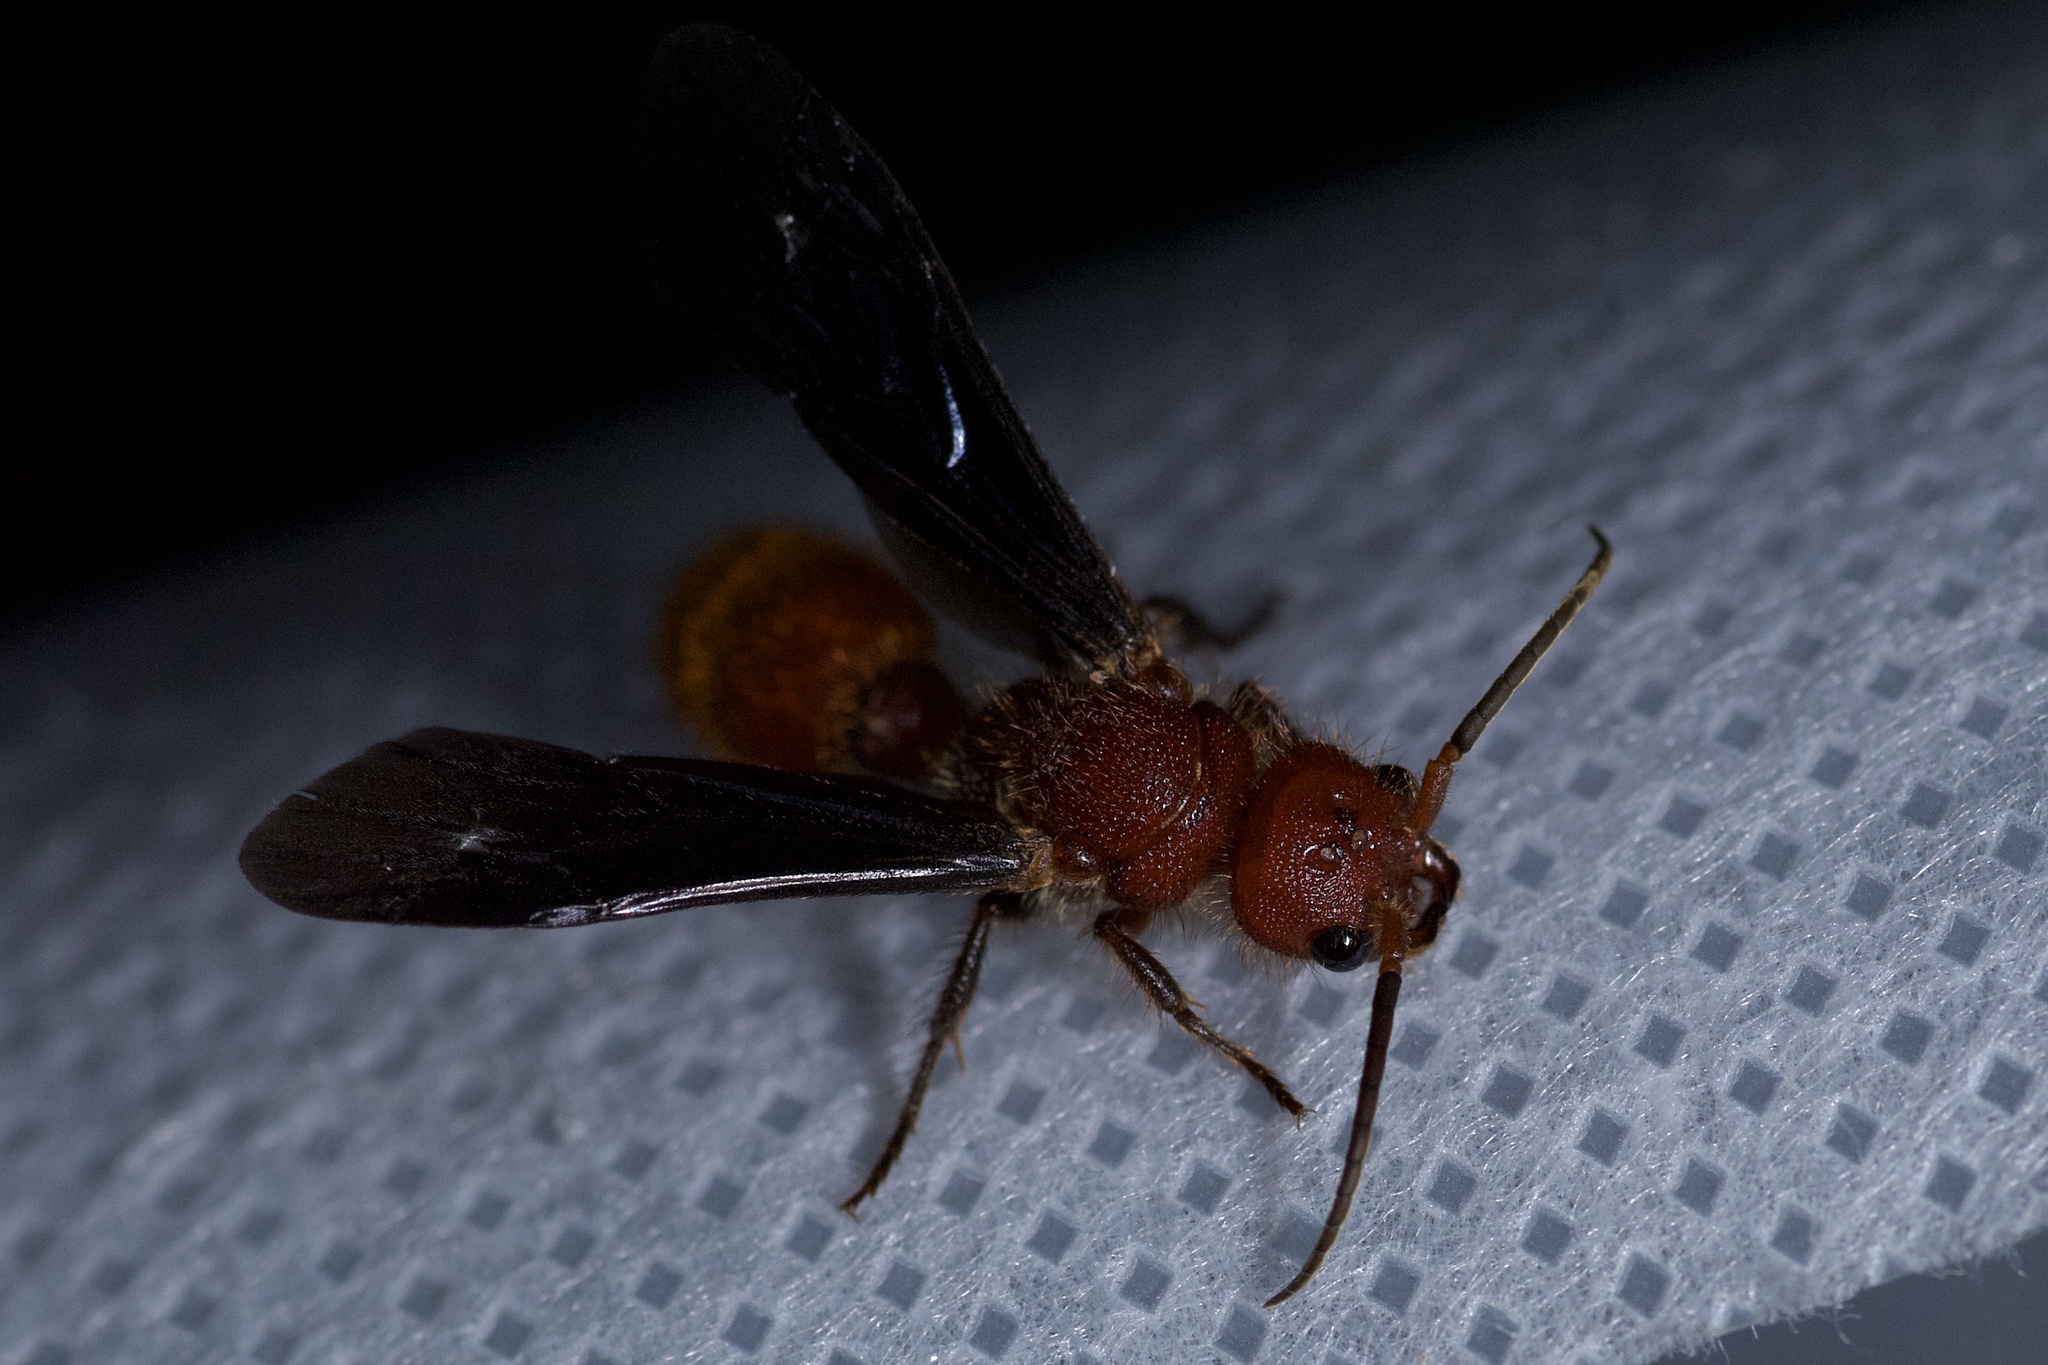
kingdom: Animalia
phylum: Arthropoda
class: Insecta
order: Hymenoptera
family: Mutillidae
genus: Sphaeropthalma
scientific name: Sphaeropthalma
